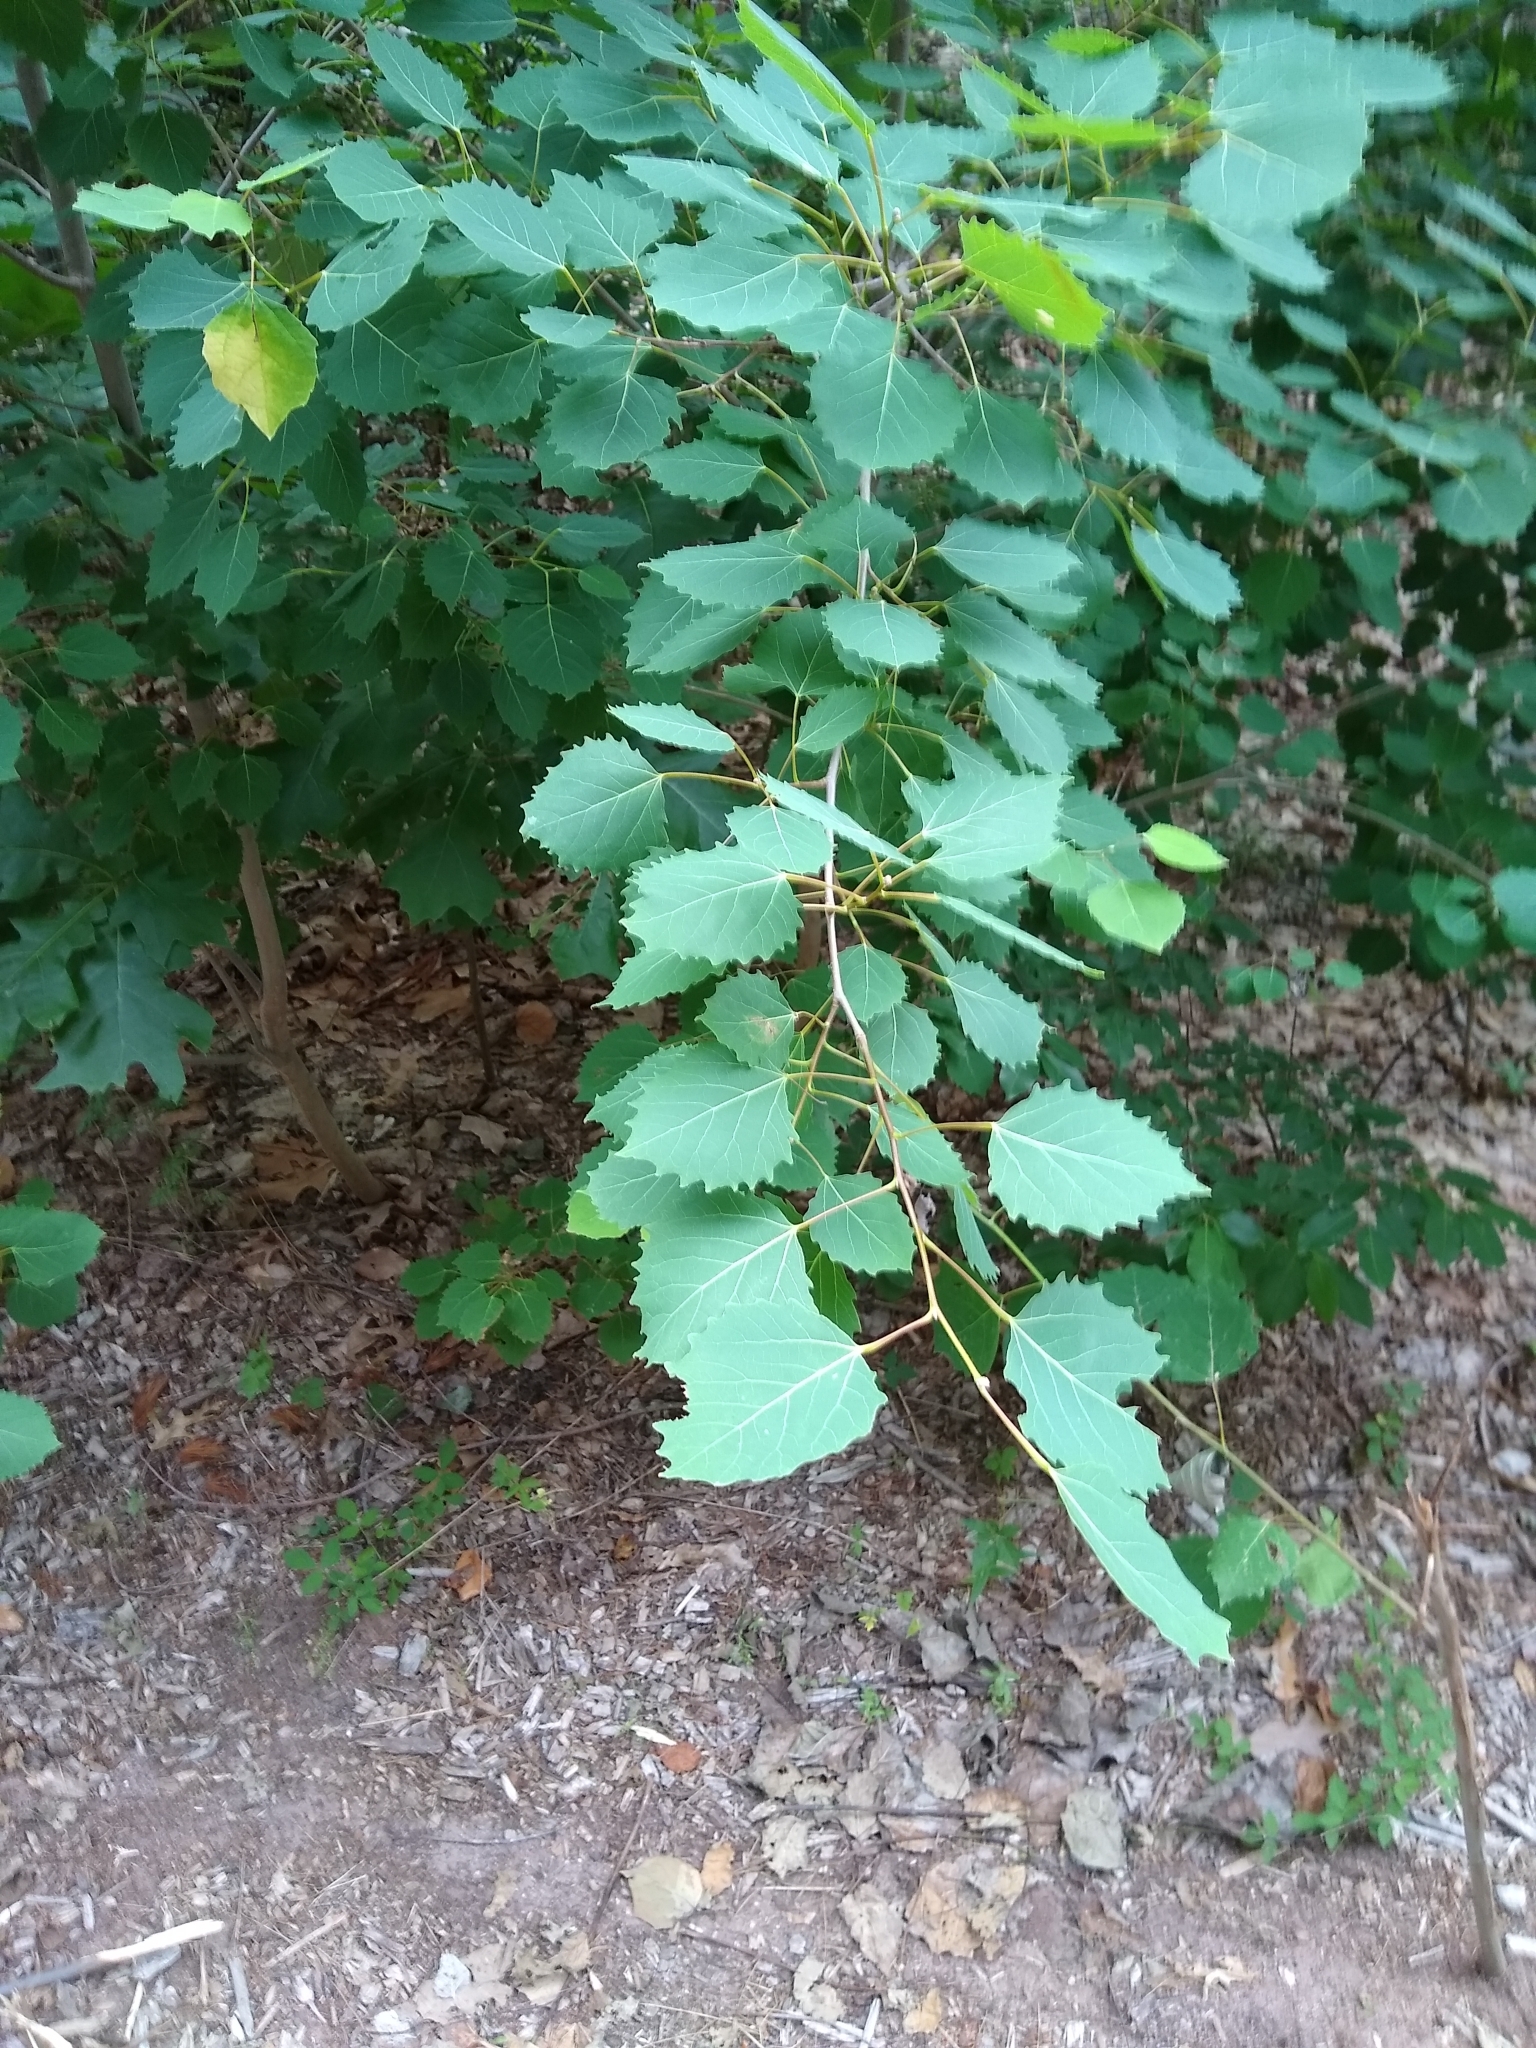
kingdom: Plantae
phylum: Tracheophyta
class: Magnoliopsida
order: Malpighiales
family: Salicaceae
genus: Populus
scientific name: Populus grandidentata
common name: Bigtooth aspen
